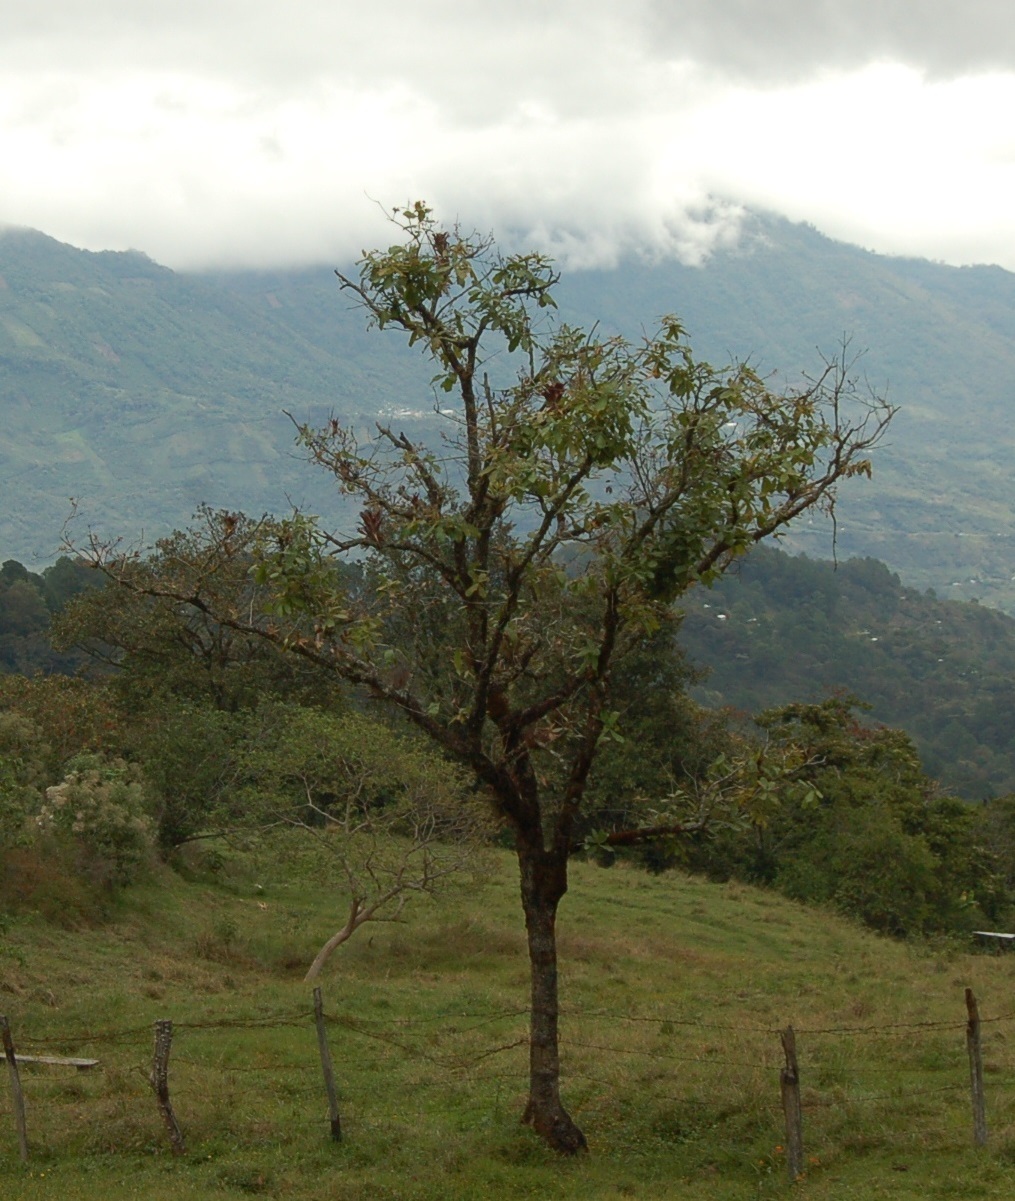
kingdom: Plantae
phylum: Tracheophyta
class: Magnoliopsida
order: Fagales
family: Fagaceae
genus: Quercus
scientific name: Quercus peduncularis
